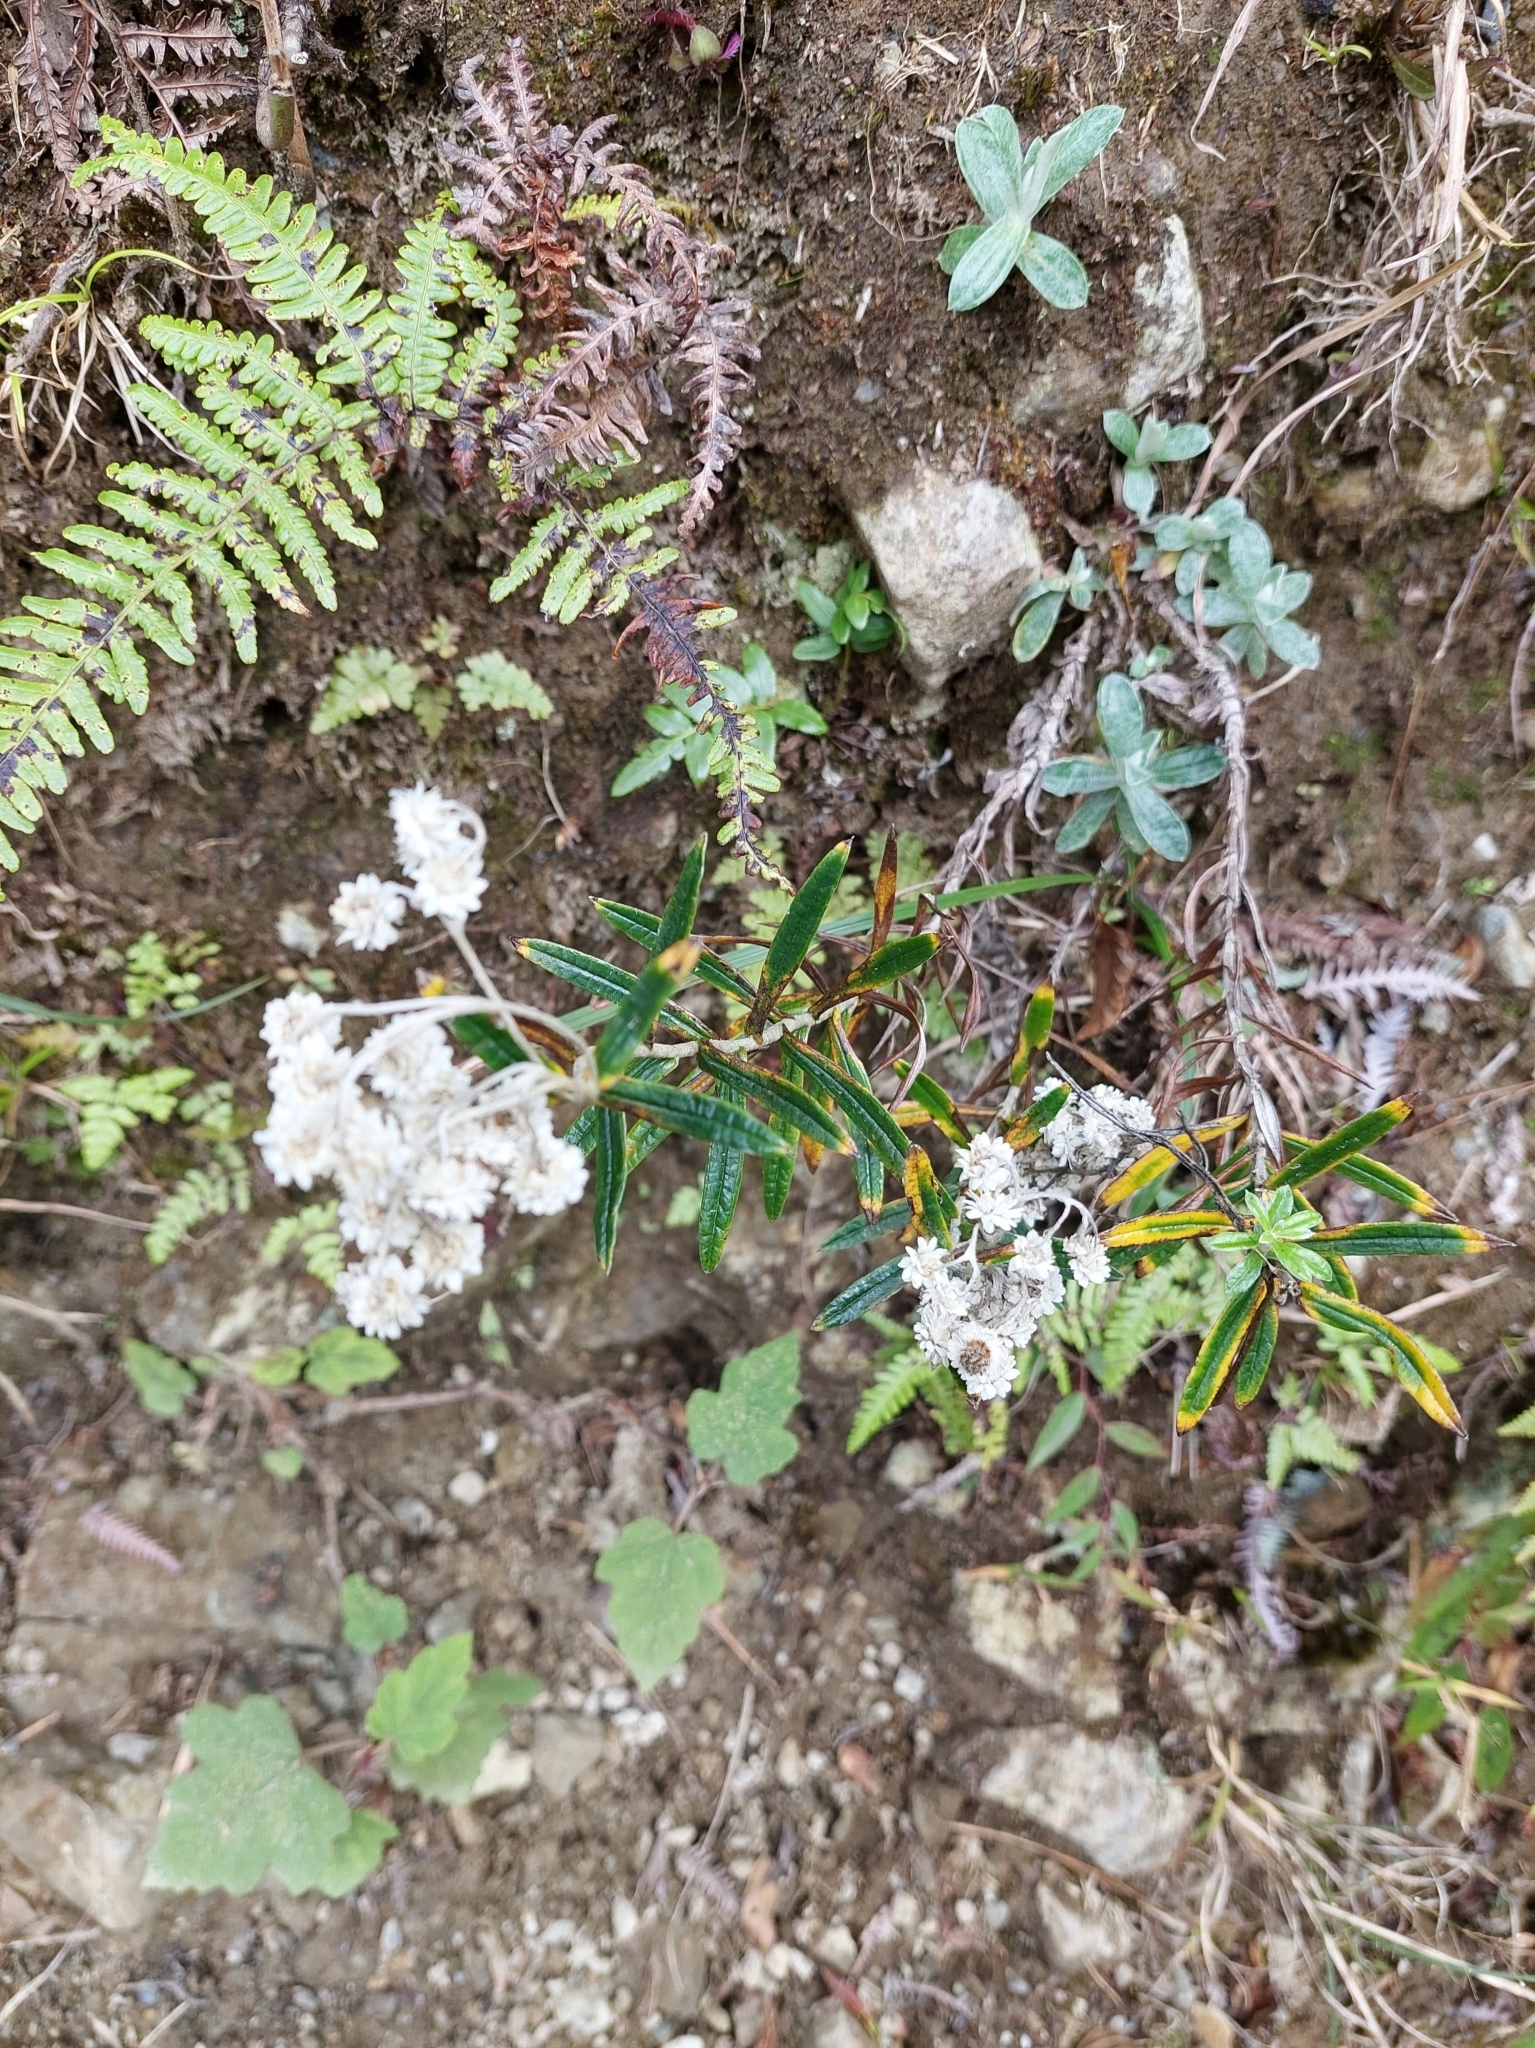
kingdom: Plantae
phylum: Tracheophyta
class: Magnoliopsida
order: Asterales
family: Asteraceae
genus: Anaphalis
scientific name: Anaphalis morrisonicola
